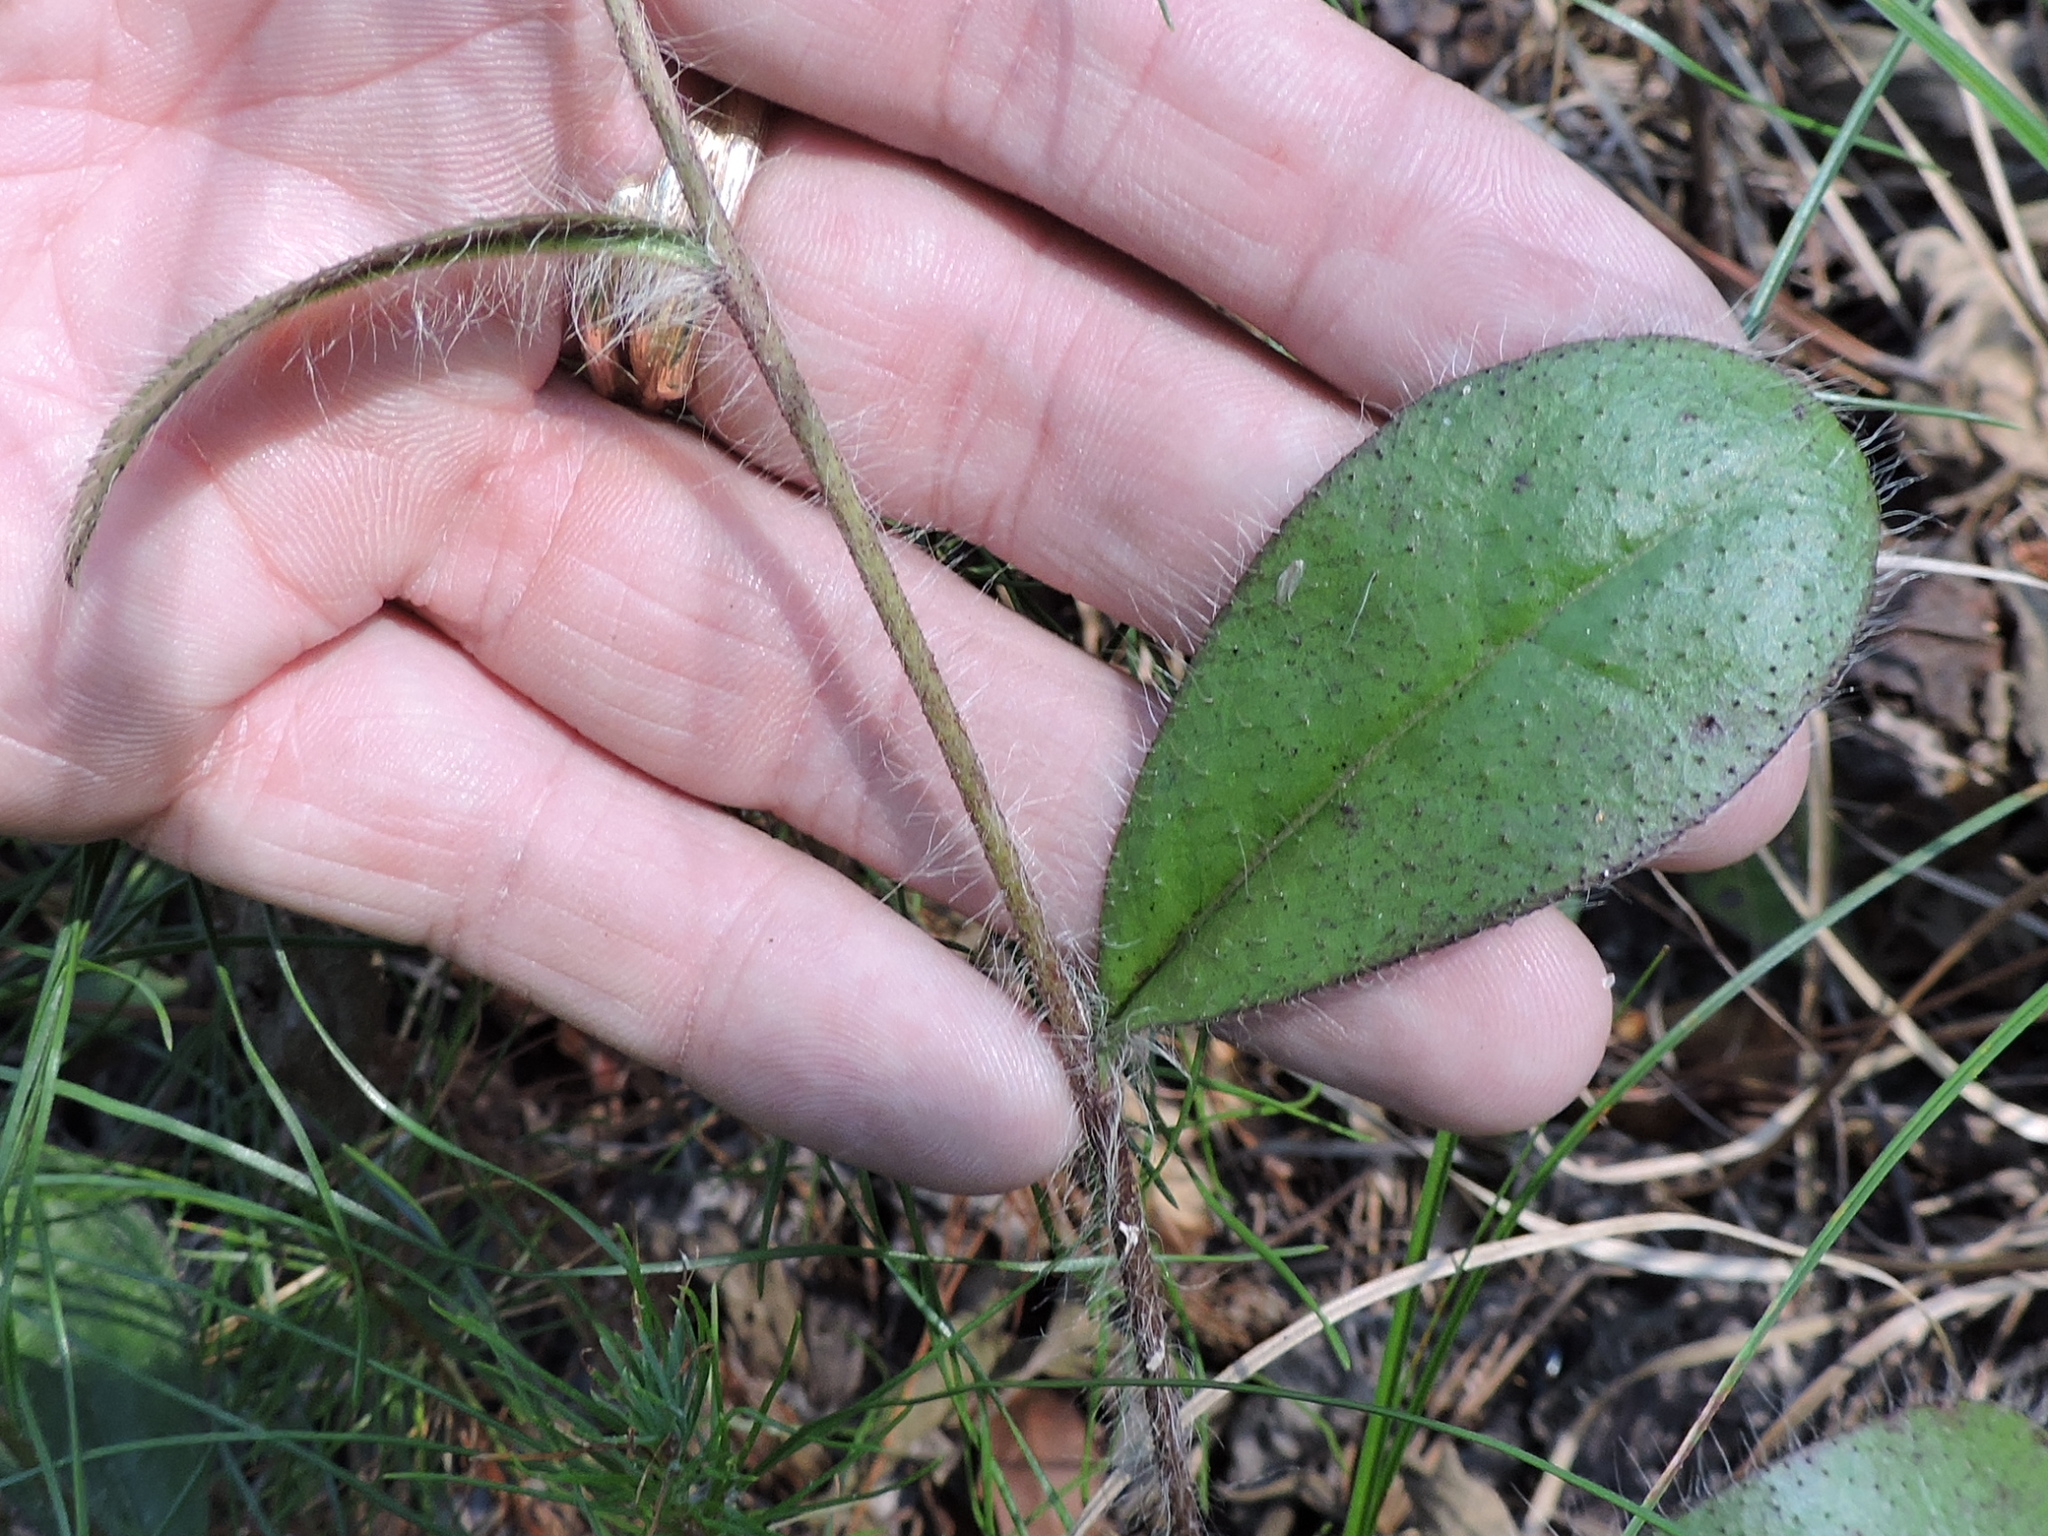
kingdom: Plantae
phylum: Tracheophyta
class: Magnoliopsida
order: Asterales
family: Asteraceae
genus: Hieracium
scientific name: Hieracium gronovii
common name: Beaked hawkweed
